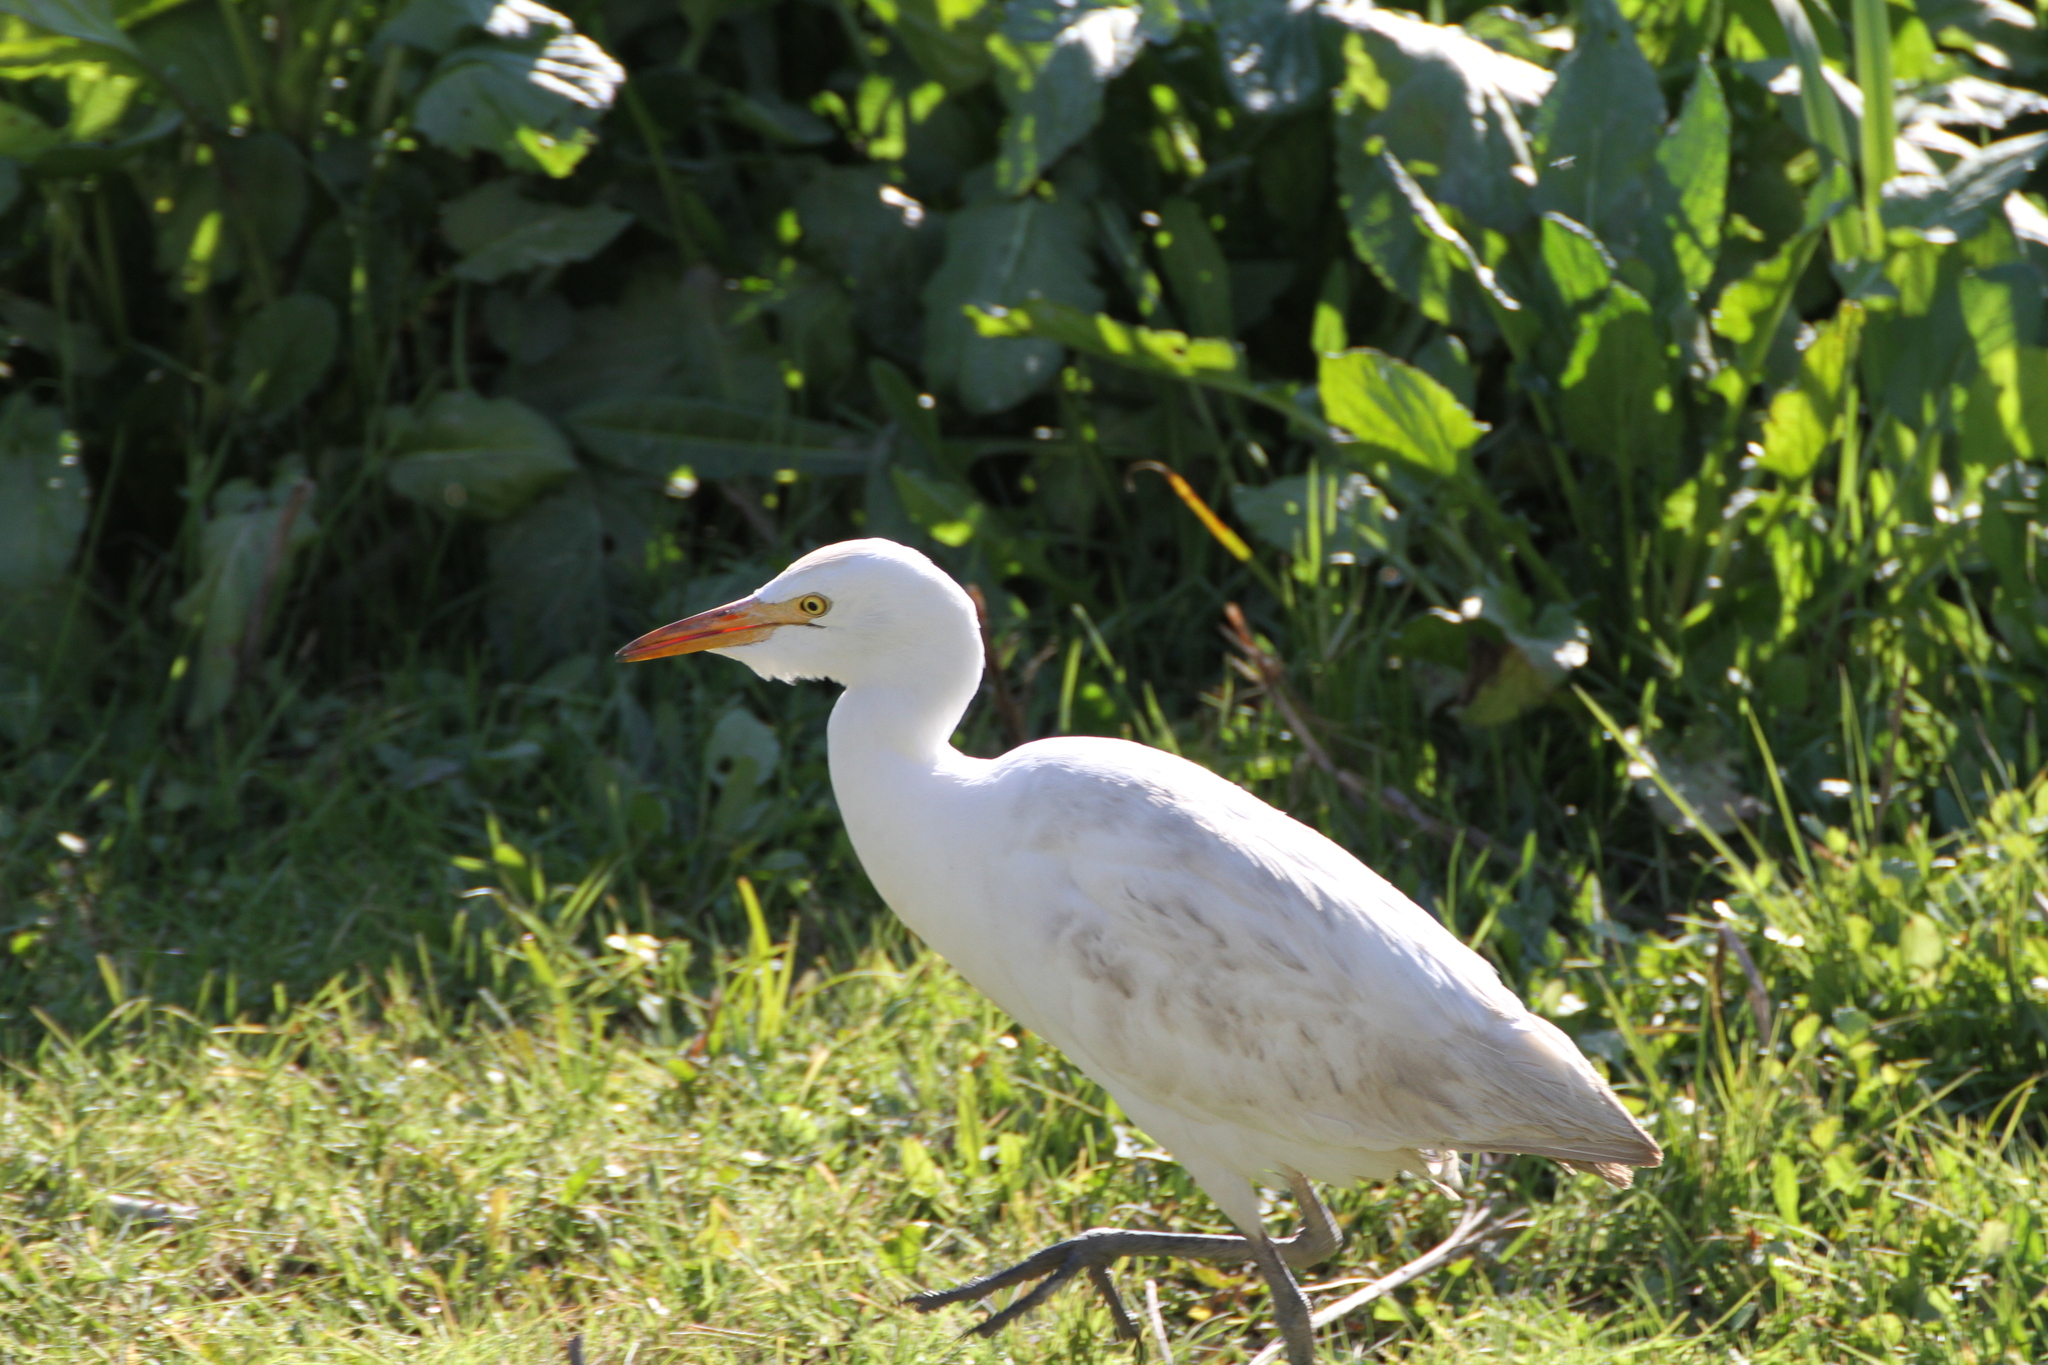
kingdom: Animalia
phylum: Chordata
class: Aves
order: Pelecaniformes
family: Ardeidae
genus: Bubulcus
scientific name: Bubulcus ibis
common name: Cattle egret
